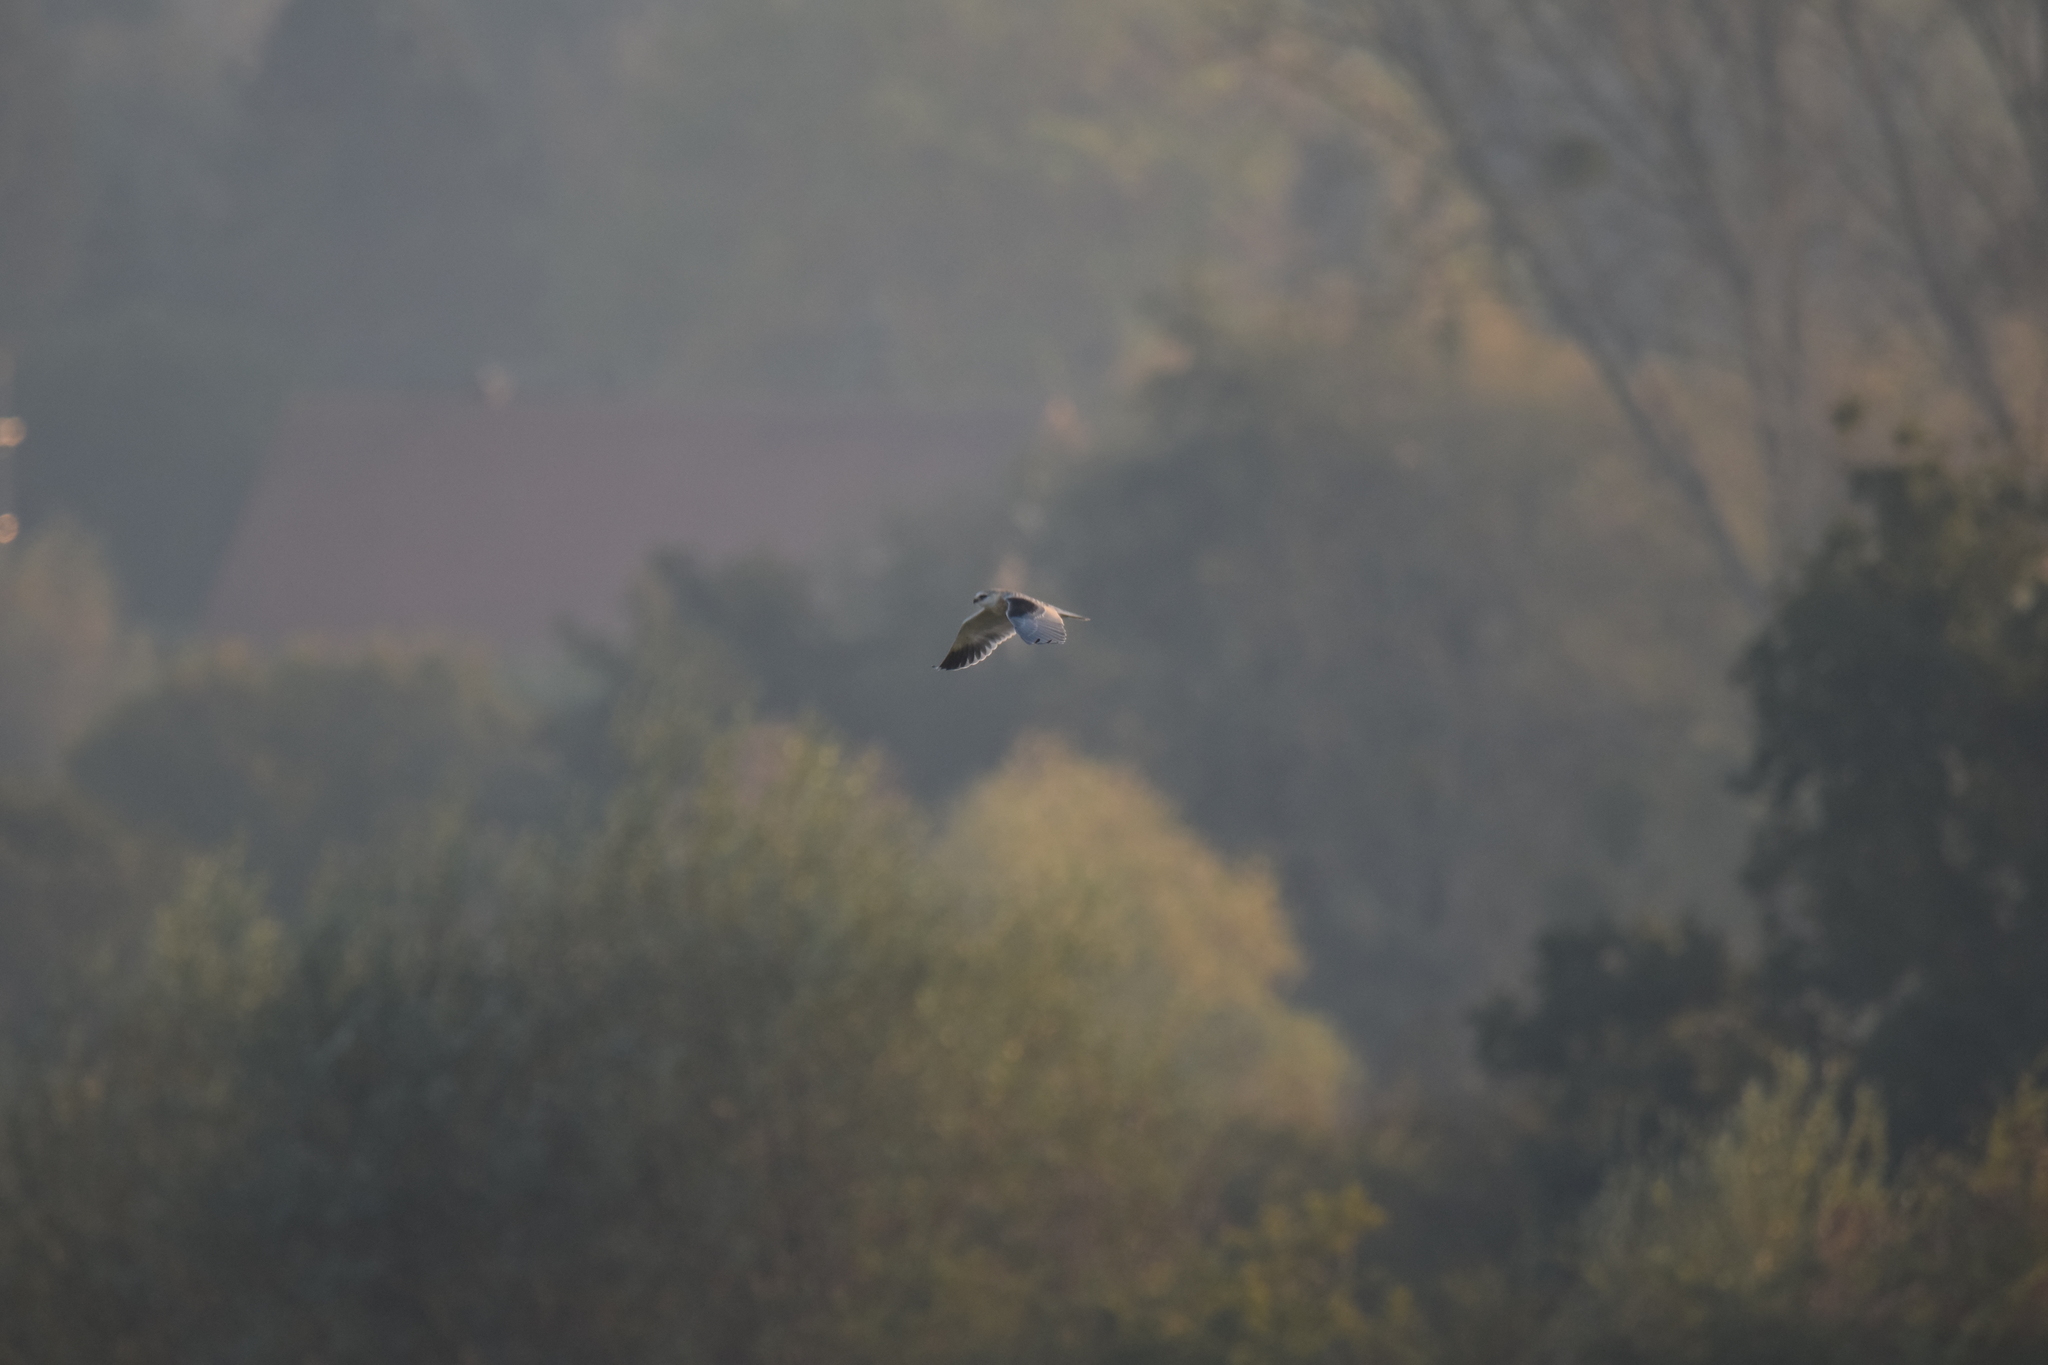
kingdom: Animalia
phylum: Chordata
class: Aves
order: Accipitriformes
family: Accipitridae
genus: Elanus
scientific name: Elanus caeruleus
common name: Black-winged kite
